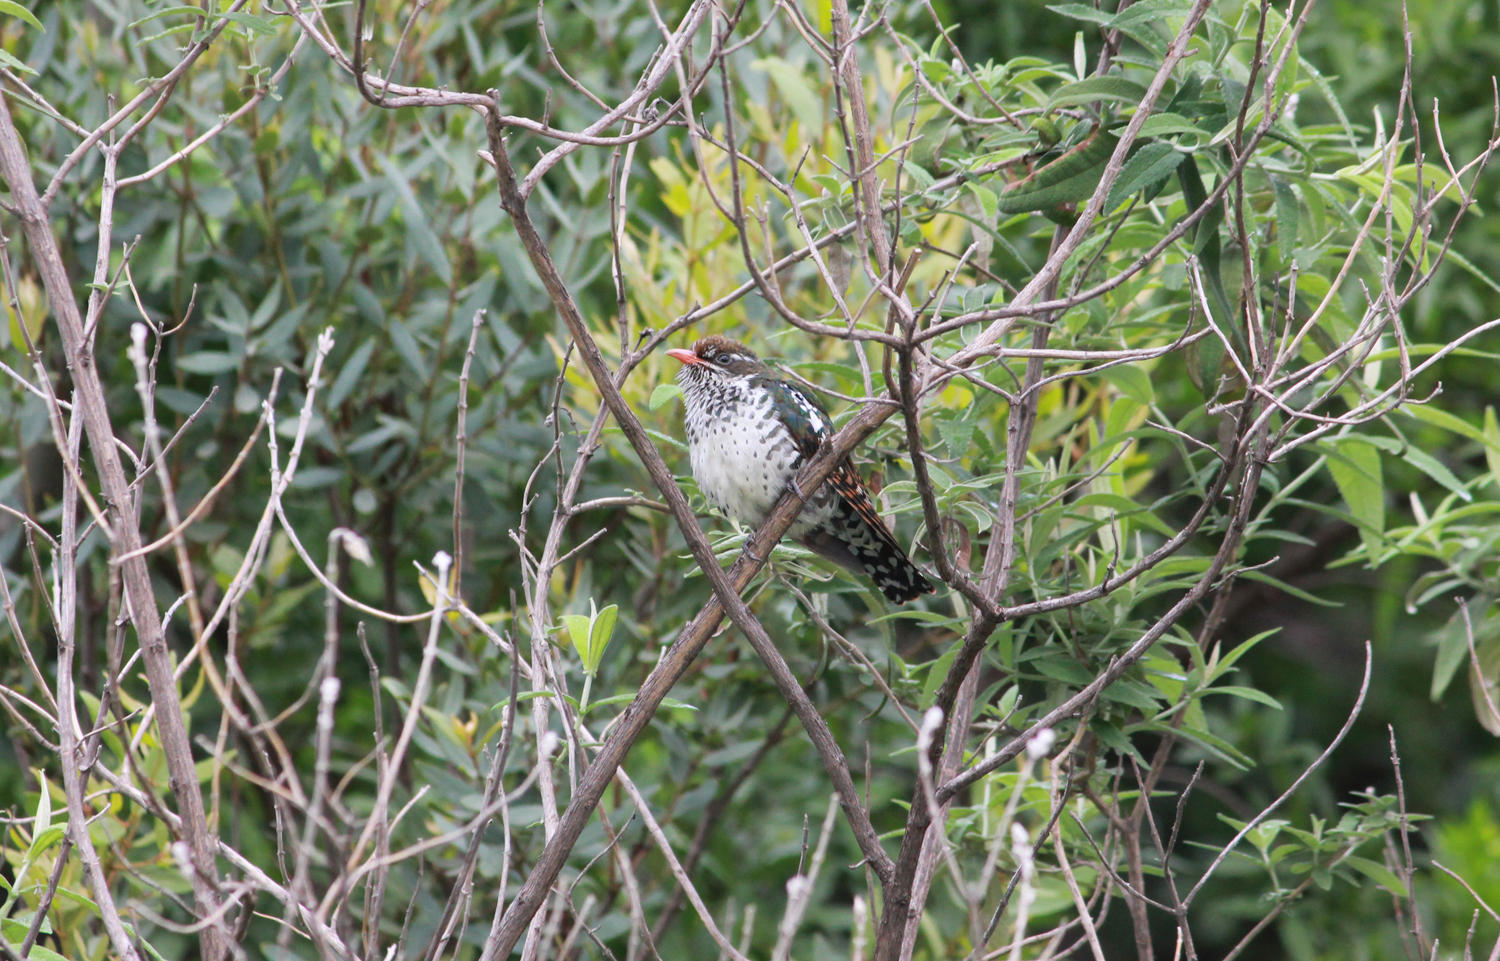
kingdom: Animalia
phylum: Chordata
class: Aves
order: Cuculiformes
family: Cuculidae
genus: Chrysococcyx
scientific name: Chrysococcyx caprius
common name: Diederik cuckoo
